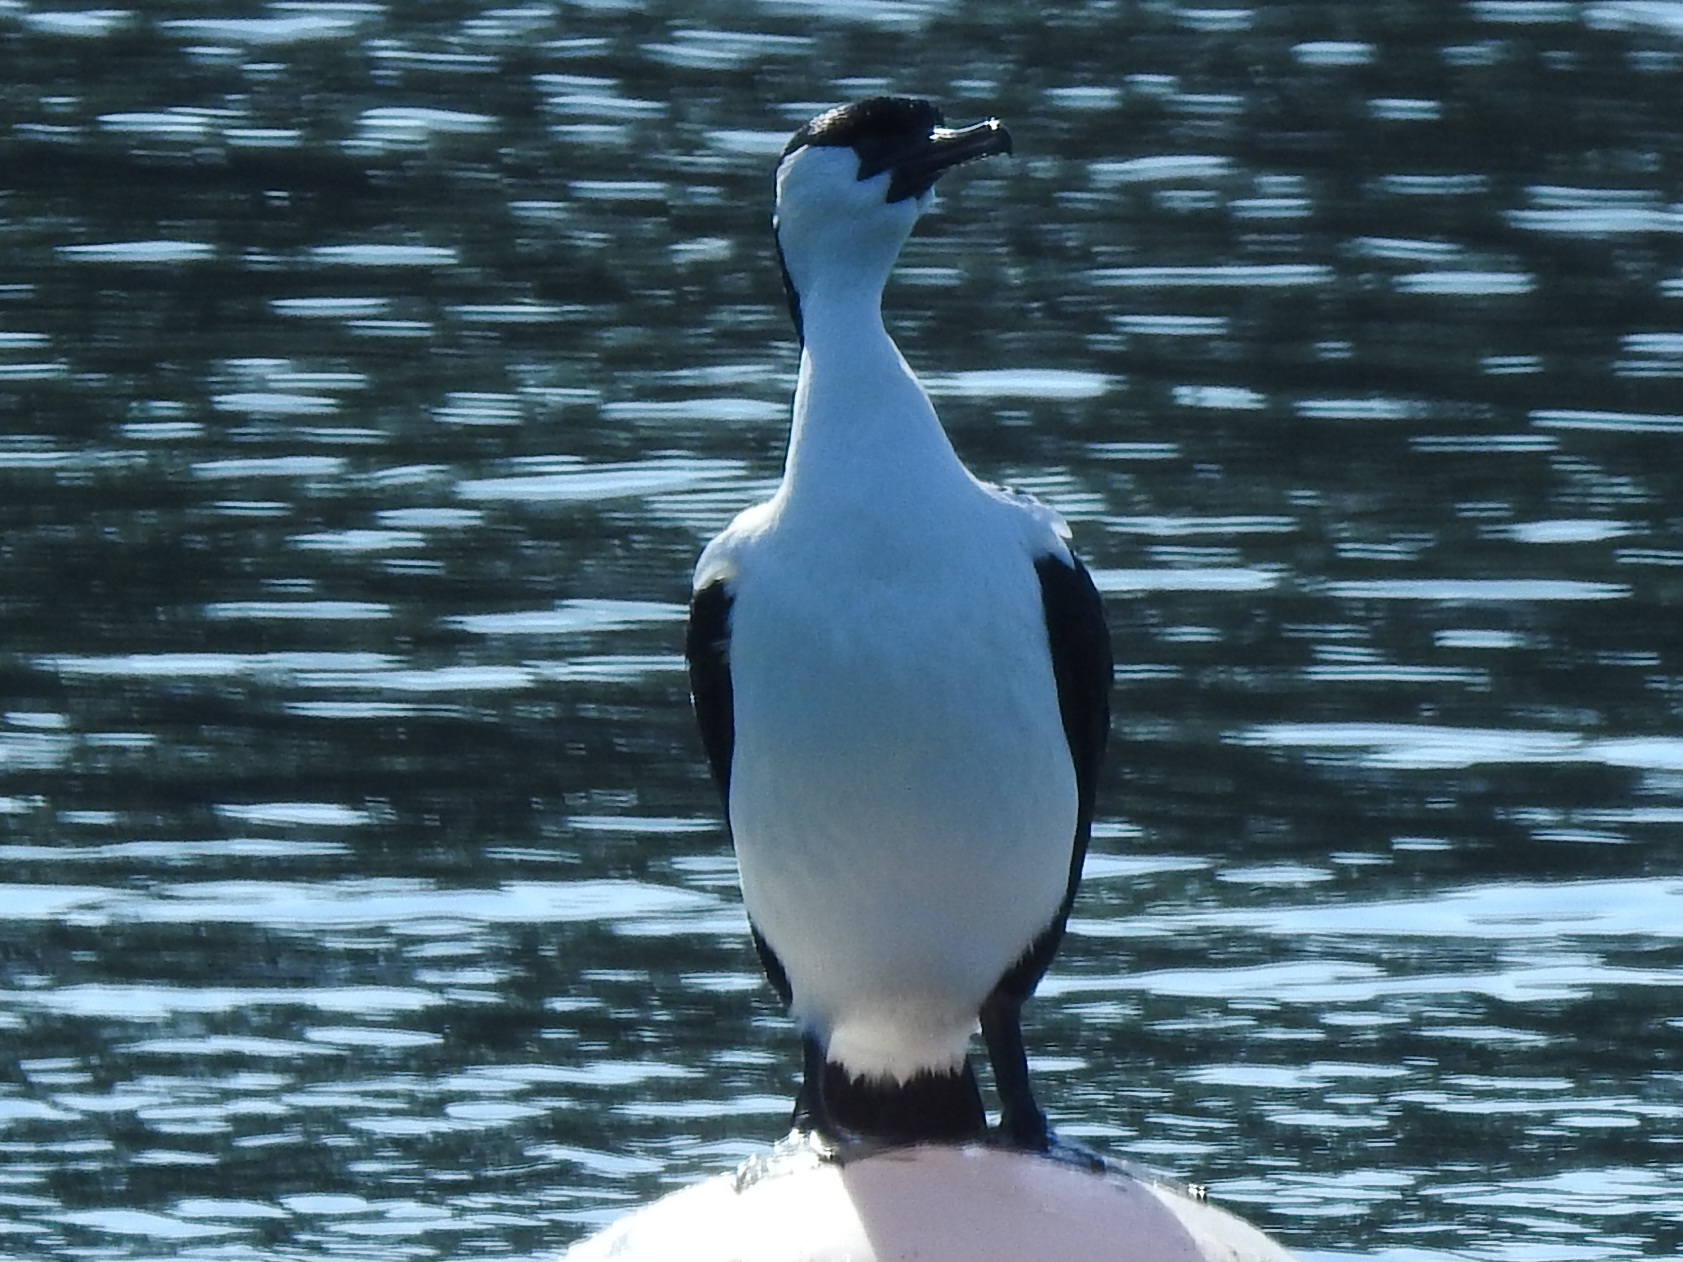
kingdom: Animalia
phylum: Chordata
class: Aves
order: Suliformes
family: Phalacrocoracidae
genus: Phalacrocorax
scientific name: Phalacrocorax fuscescens
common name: Black-faced cormorant
